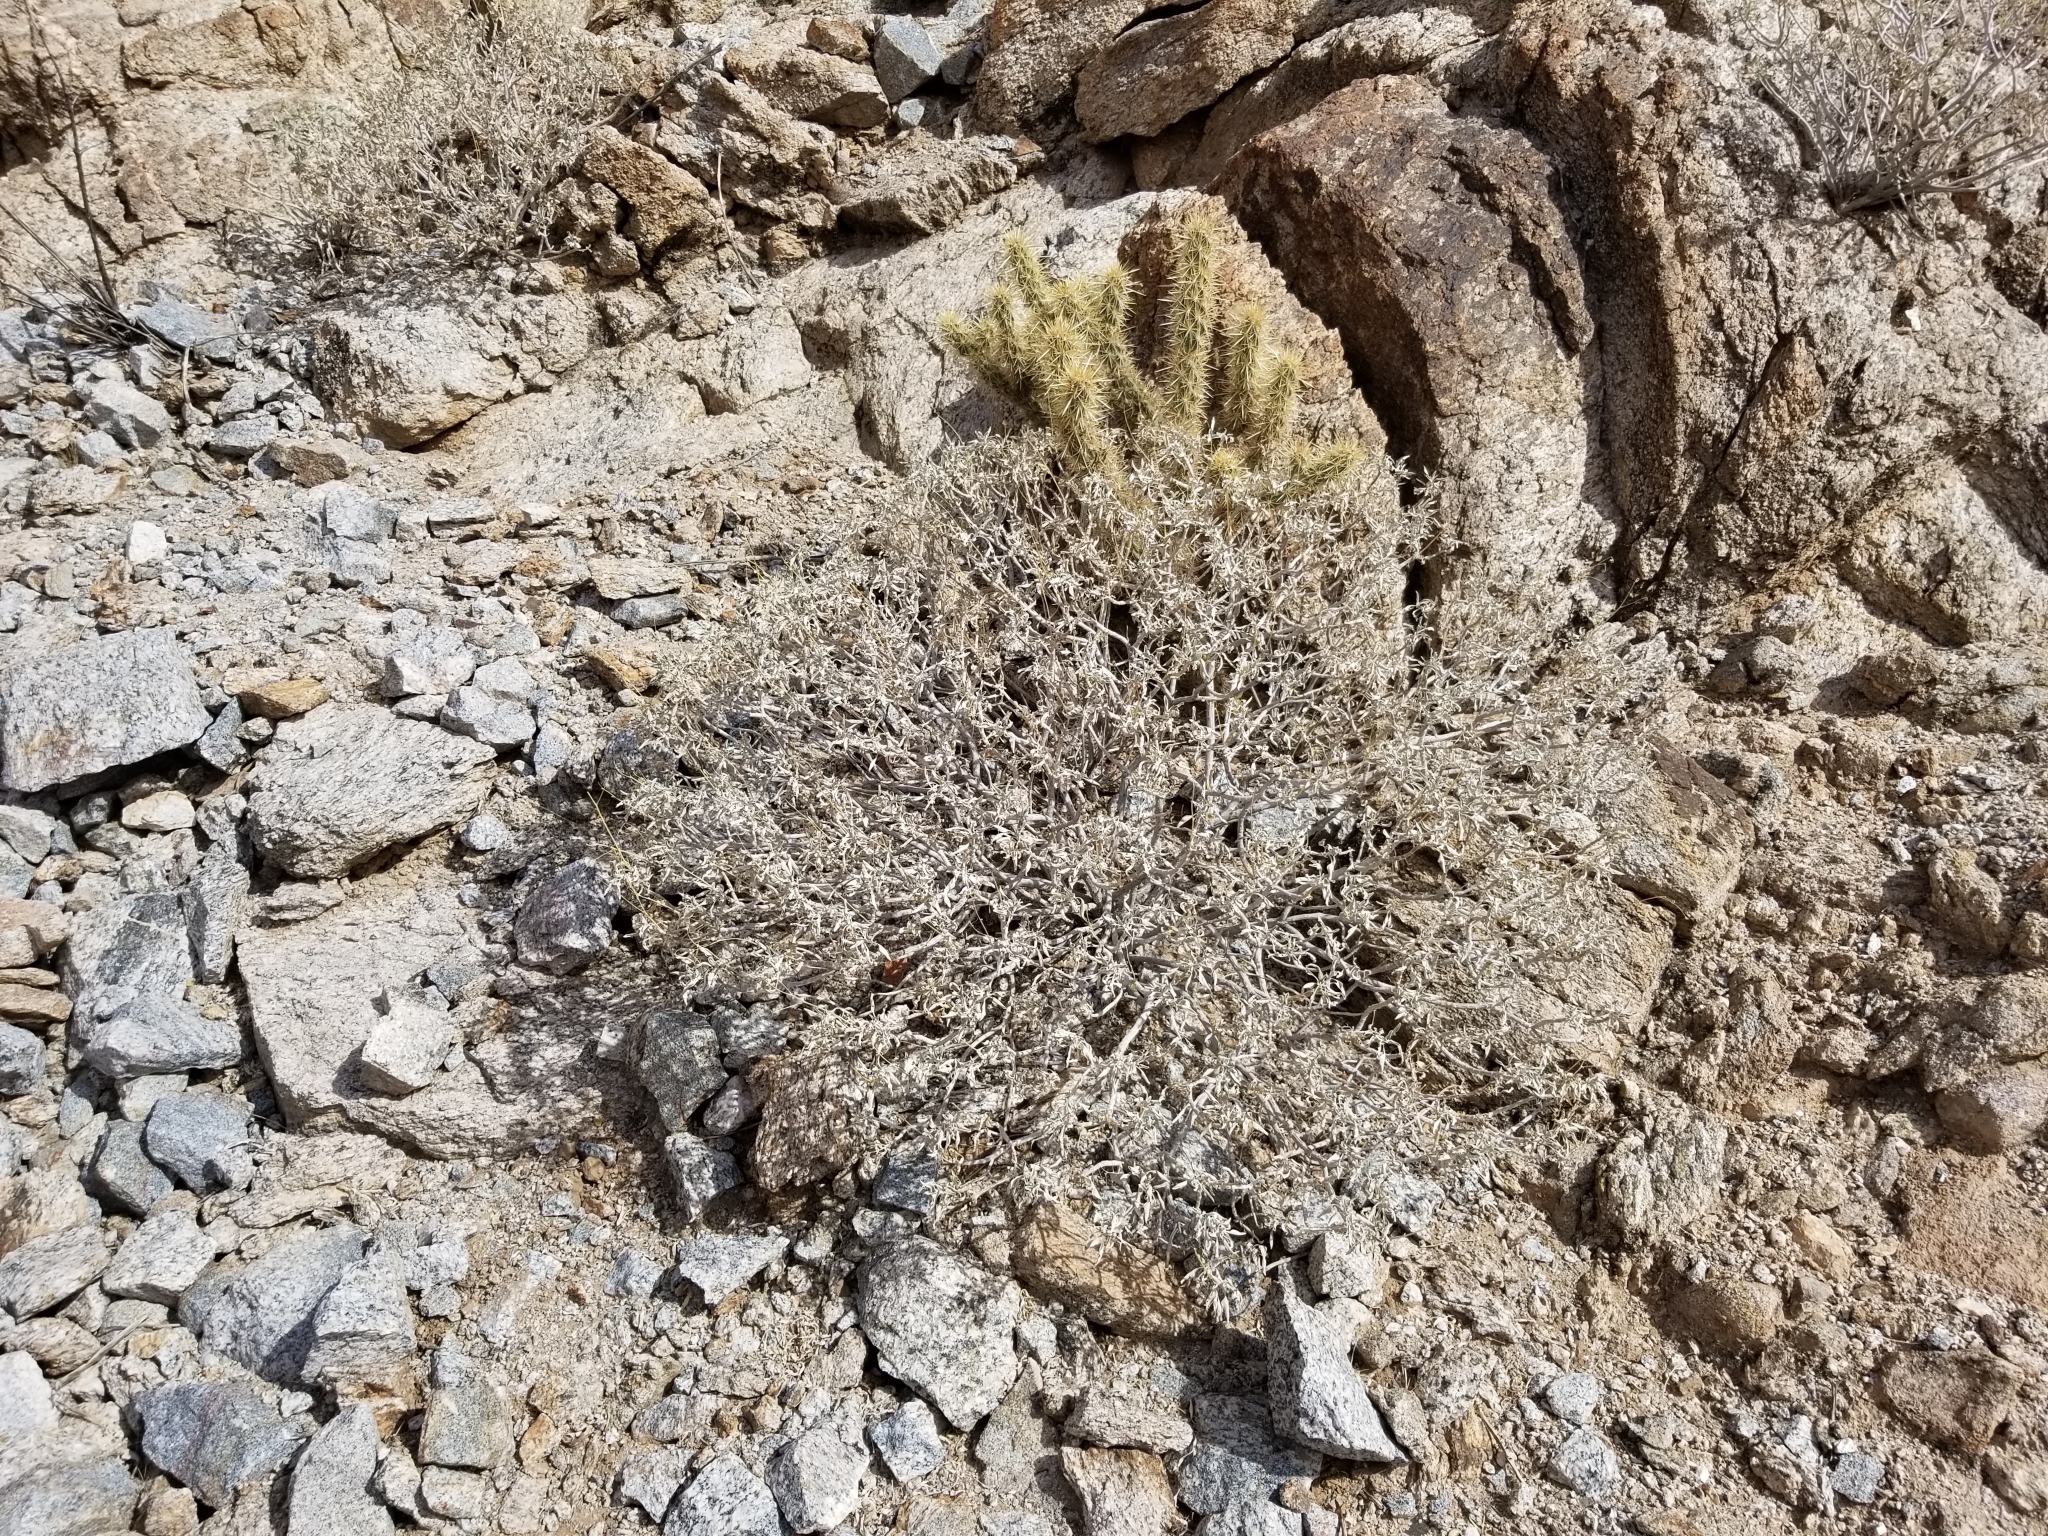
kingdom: Plantae
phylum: Tracheophyta
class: Magnoliopsida
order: Asterales
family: Asteraceae
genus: Encelia
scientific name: Encelia farinosa
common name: Brittlebush
